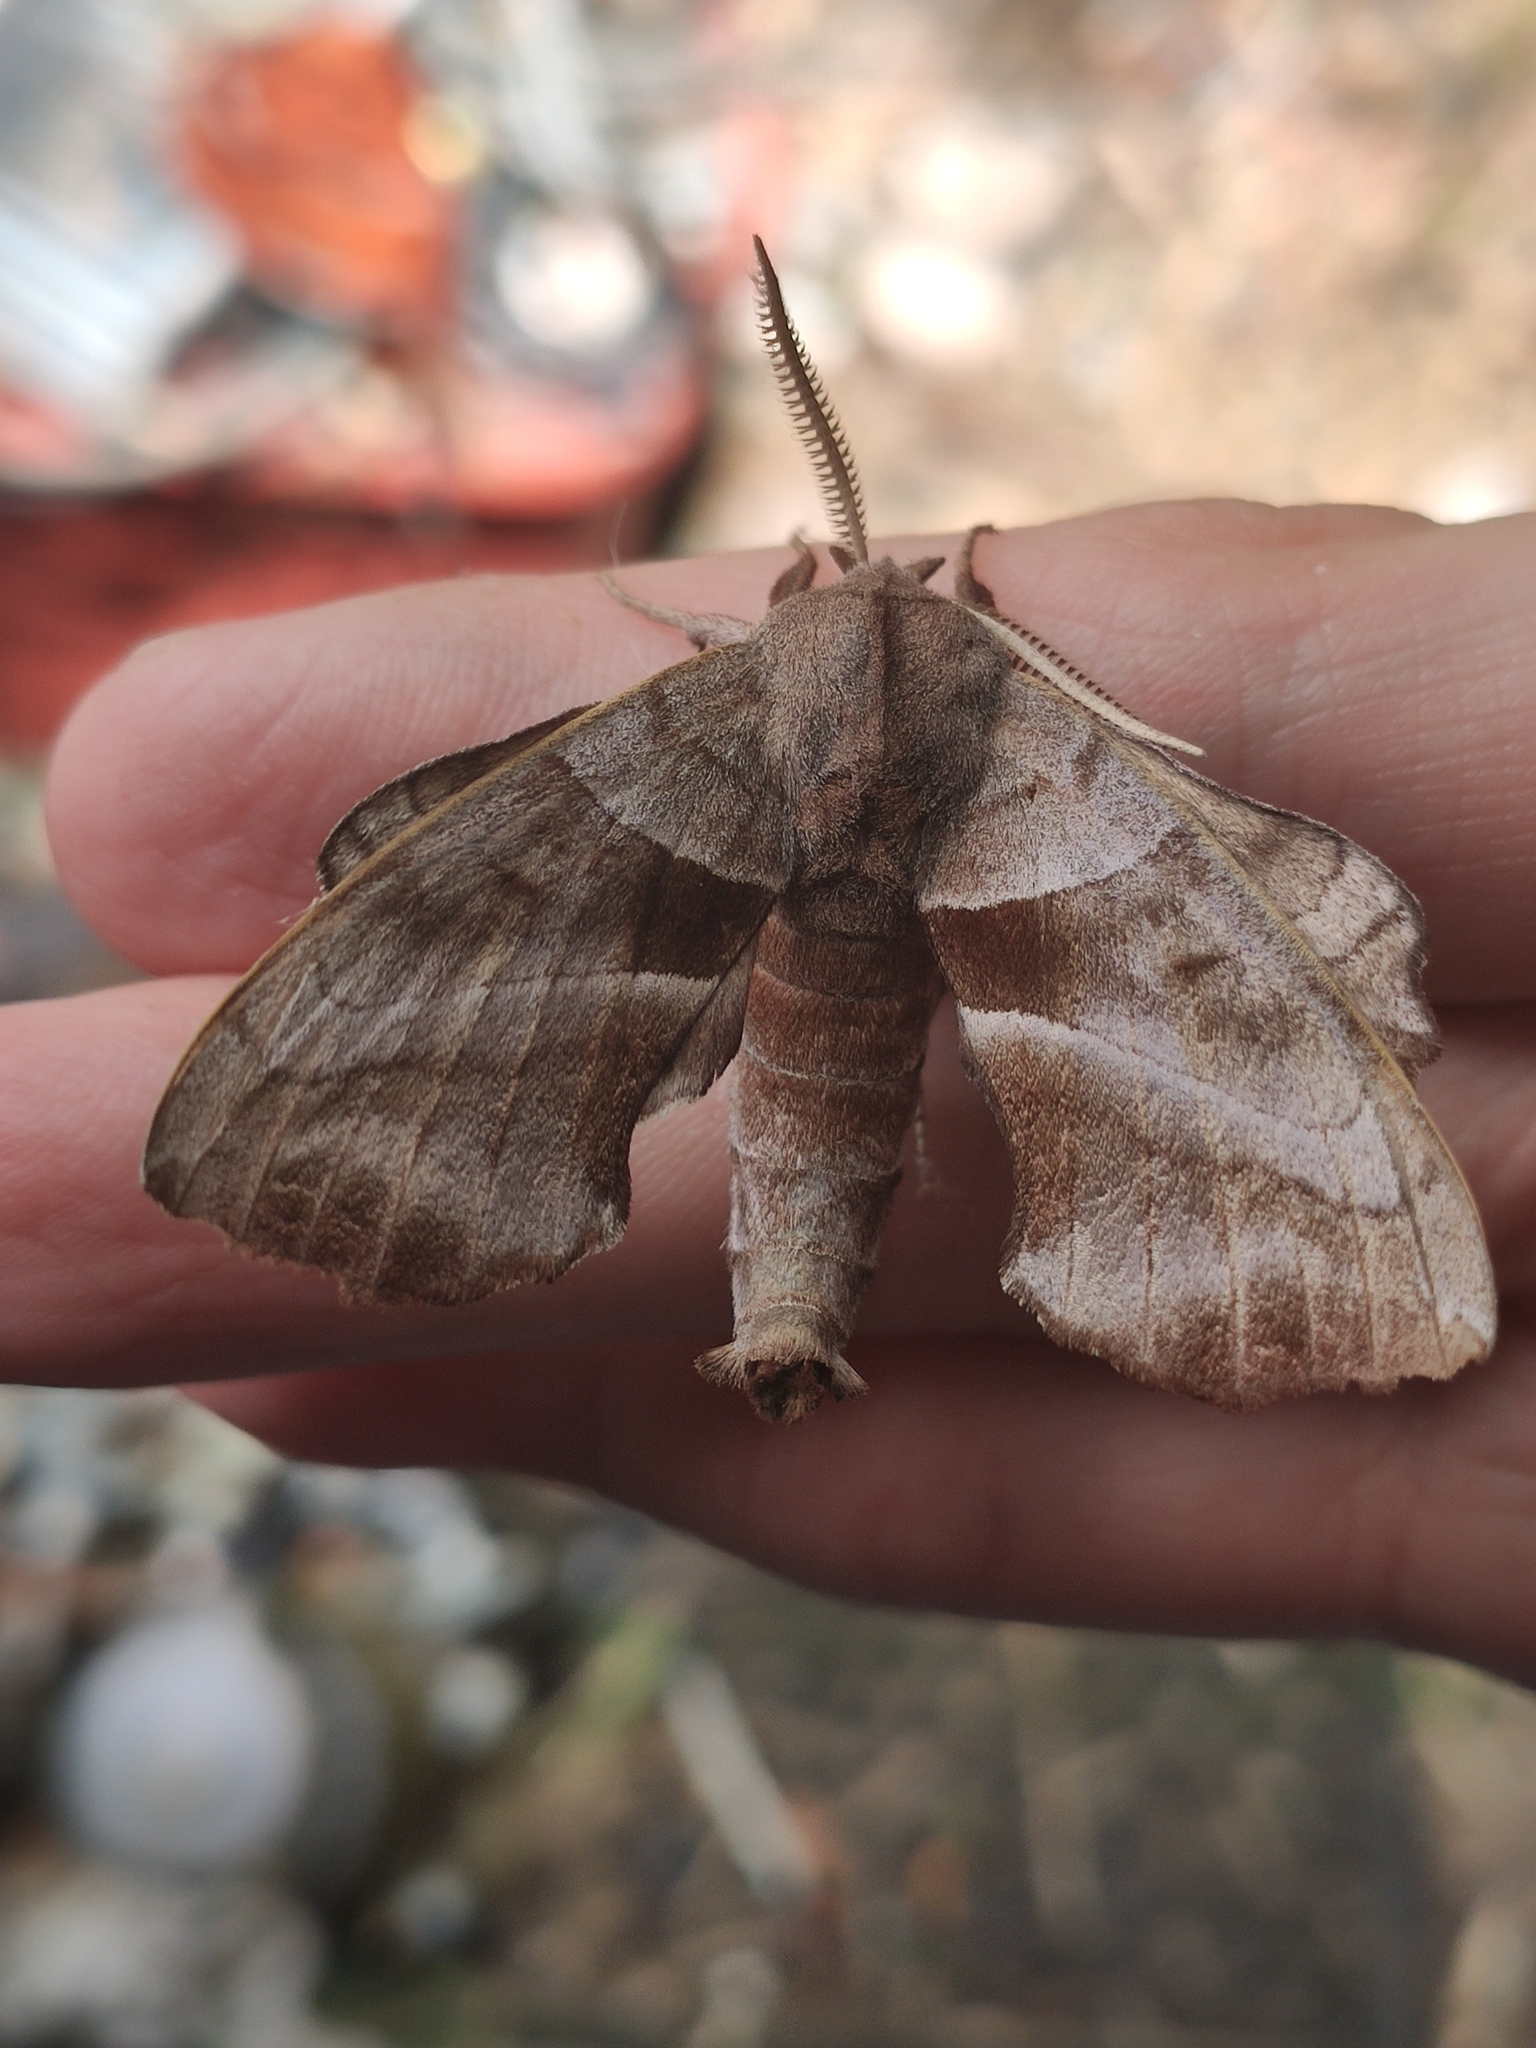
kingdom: Animalia
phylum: Arthropoda
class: Insecta
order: Lepidoptera
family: Sphingidae
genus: Amorpha
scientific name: Amorpha juglandis
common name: Walnut sphinx
